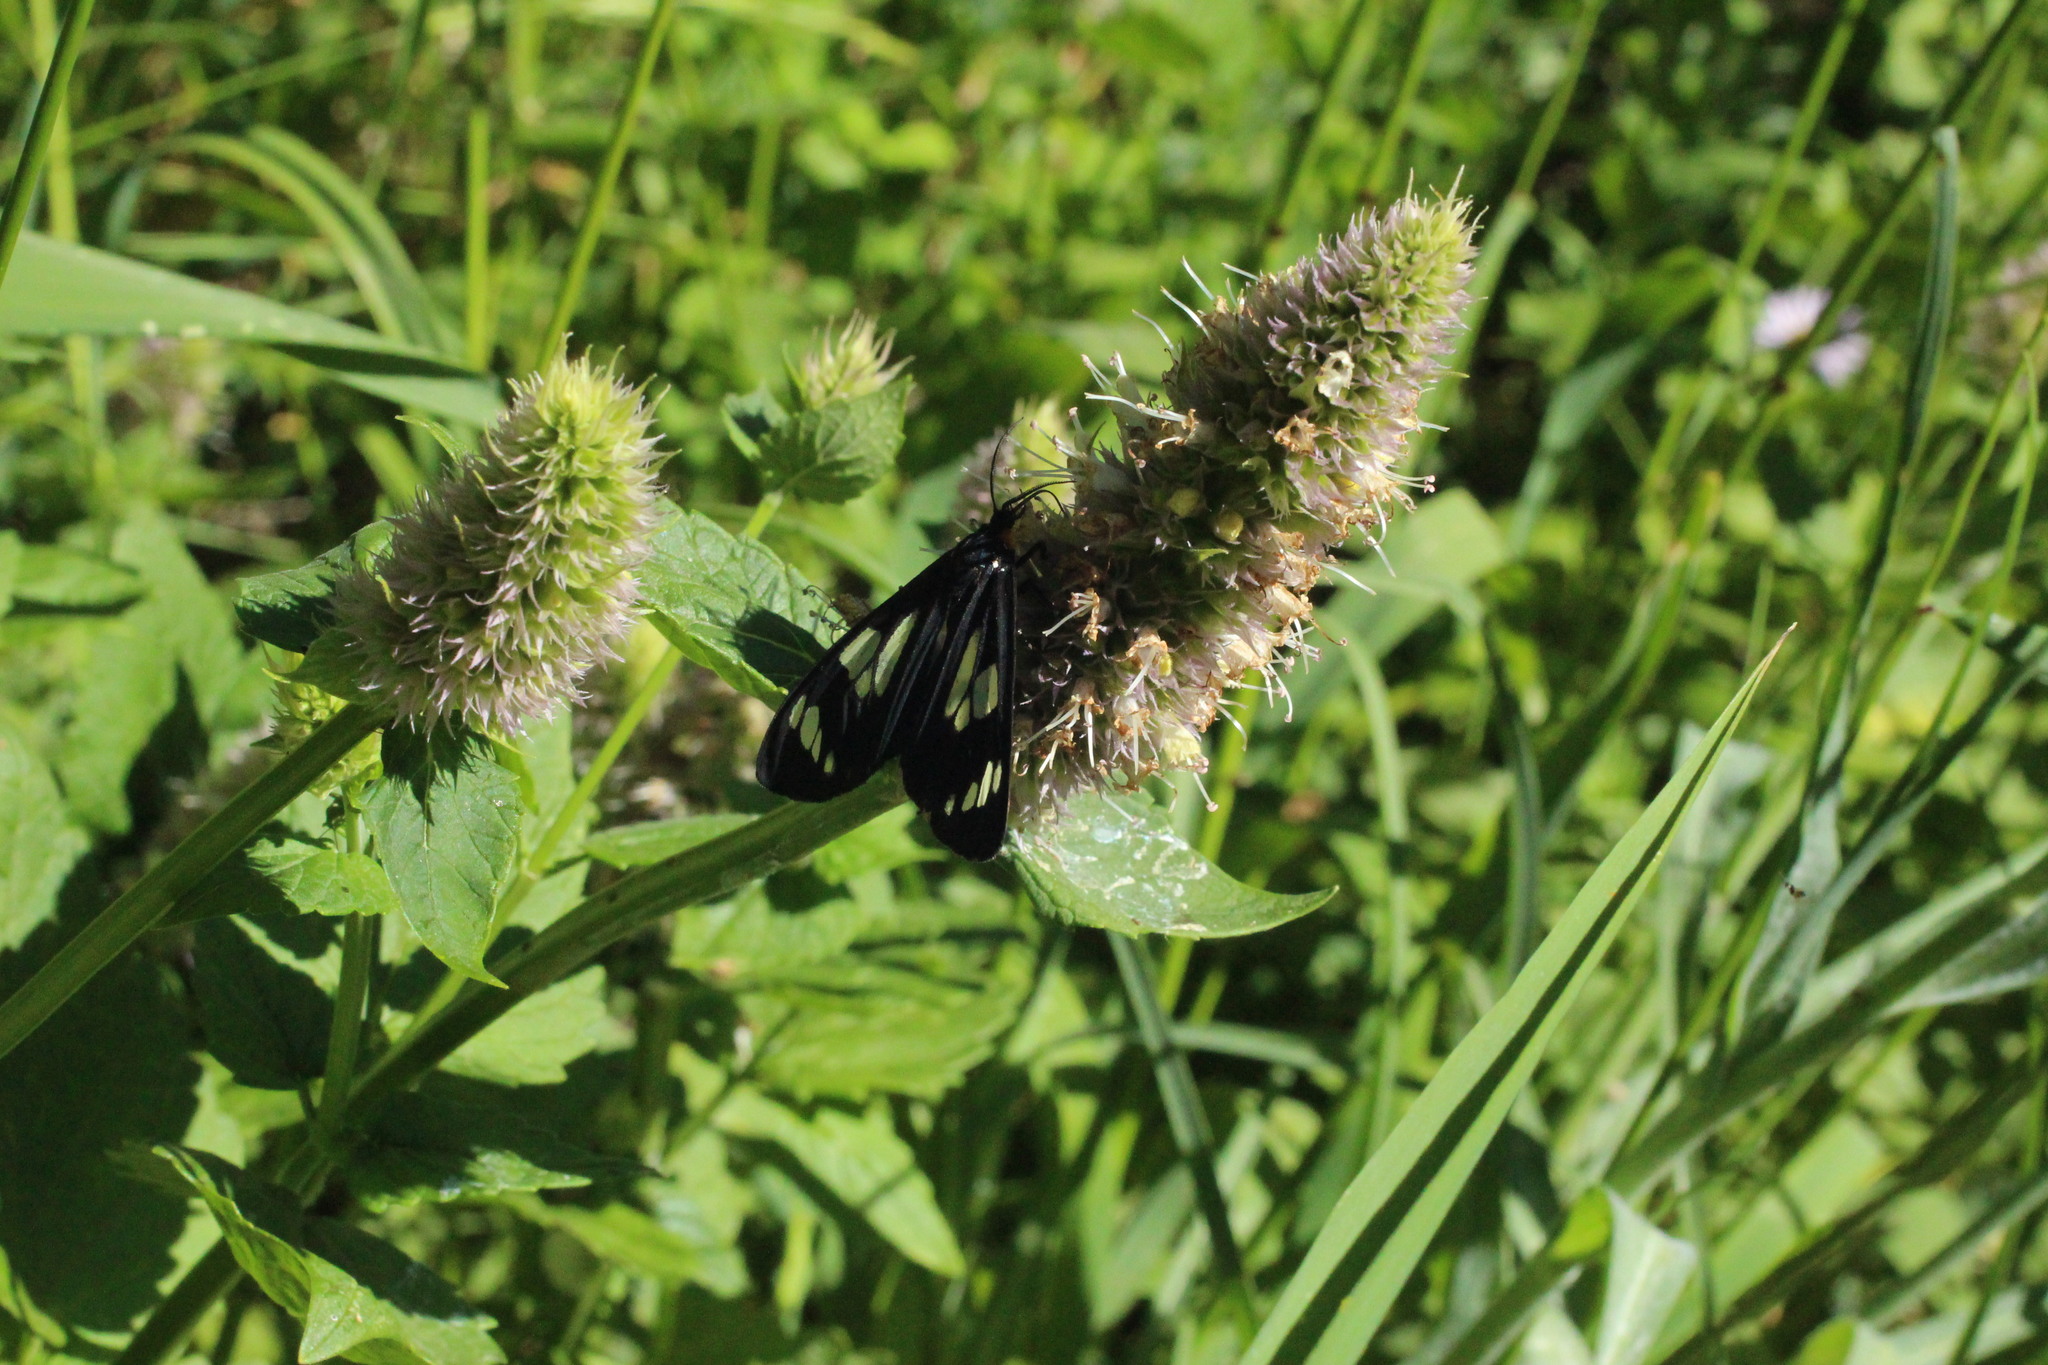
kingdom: Animalia
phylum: Arthropoda
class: Insecta
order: Lepidoptera
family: Erebidae
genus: Gnophaela
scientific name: Gnophaela latipennis
